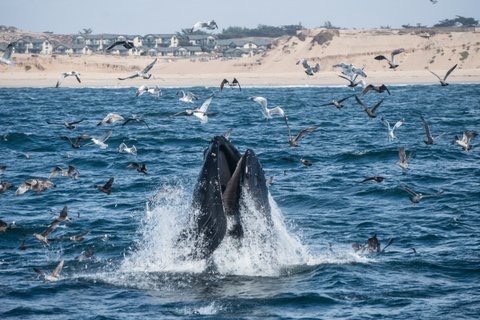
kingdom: Animalia
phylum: Chordata
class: Mammalia
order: Cetacea
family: Balaenopteridae
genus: Megaptera
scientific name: Megaptera novaeangliae
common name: Humpback whale
